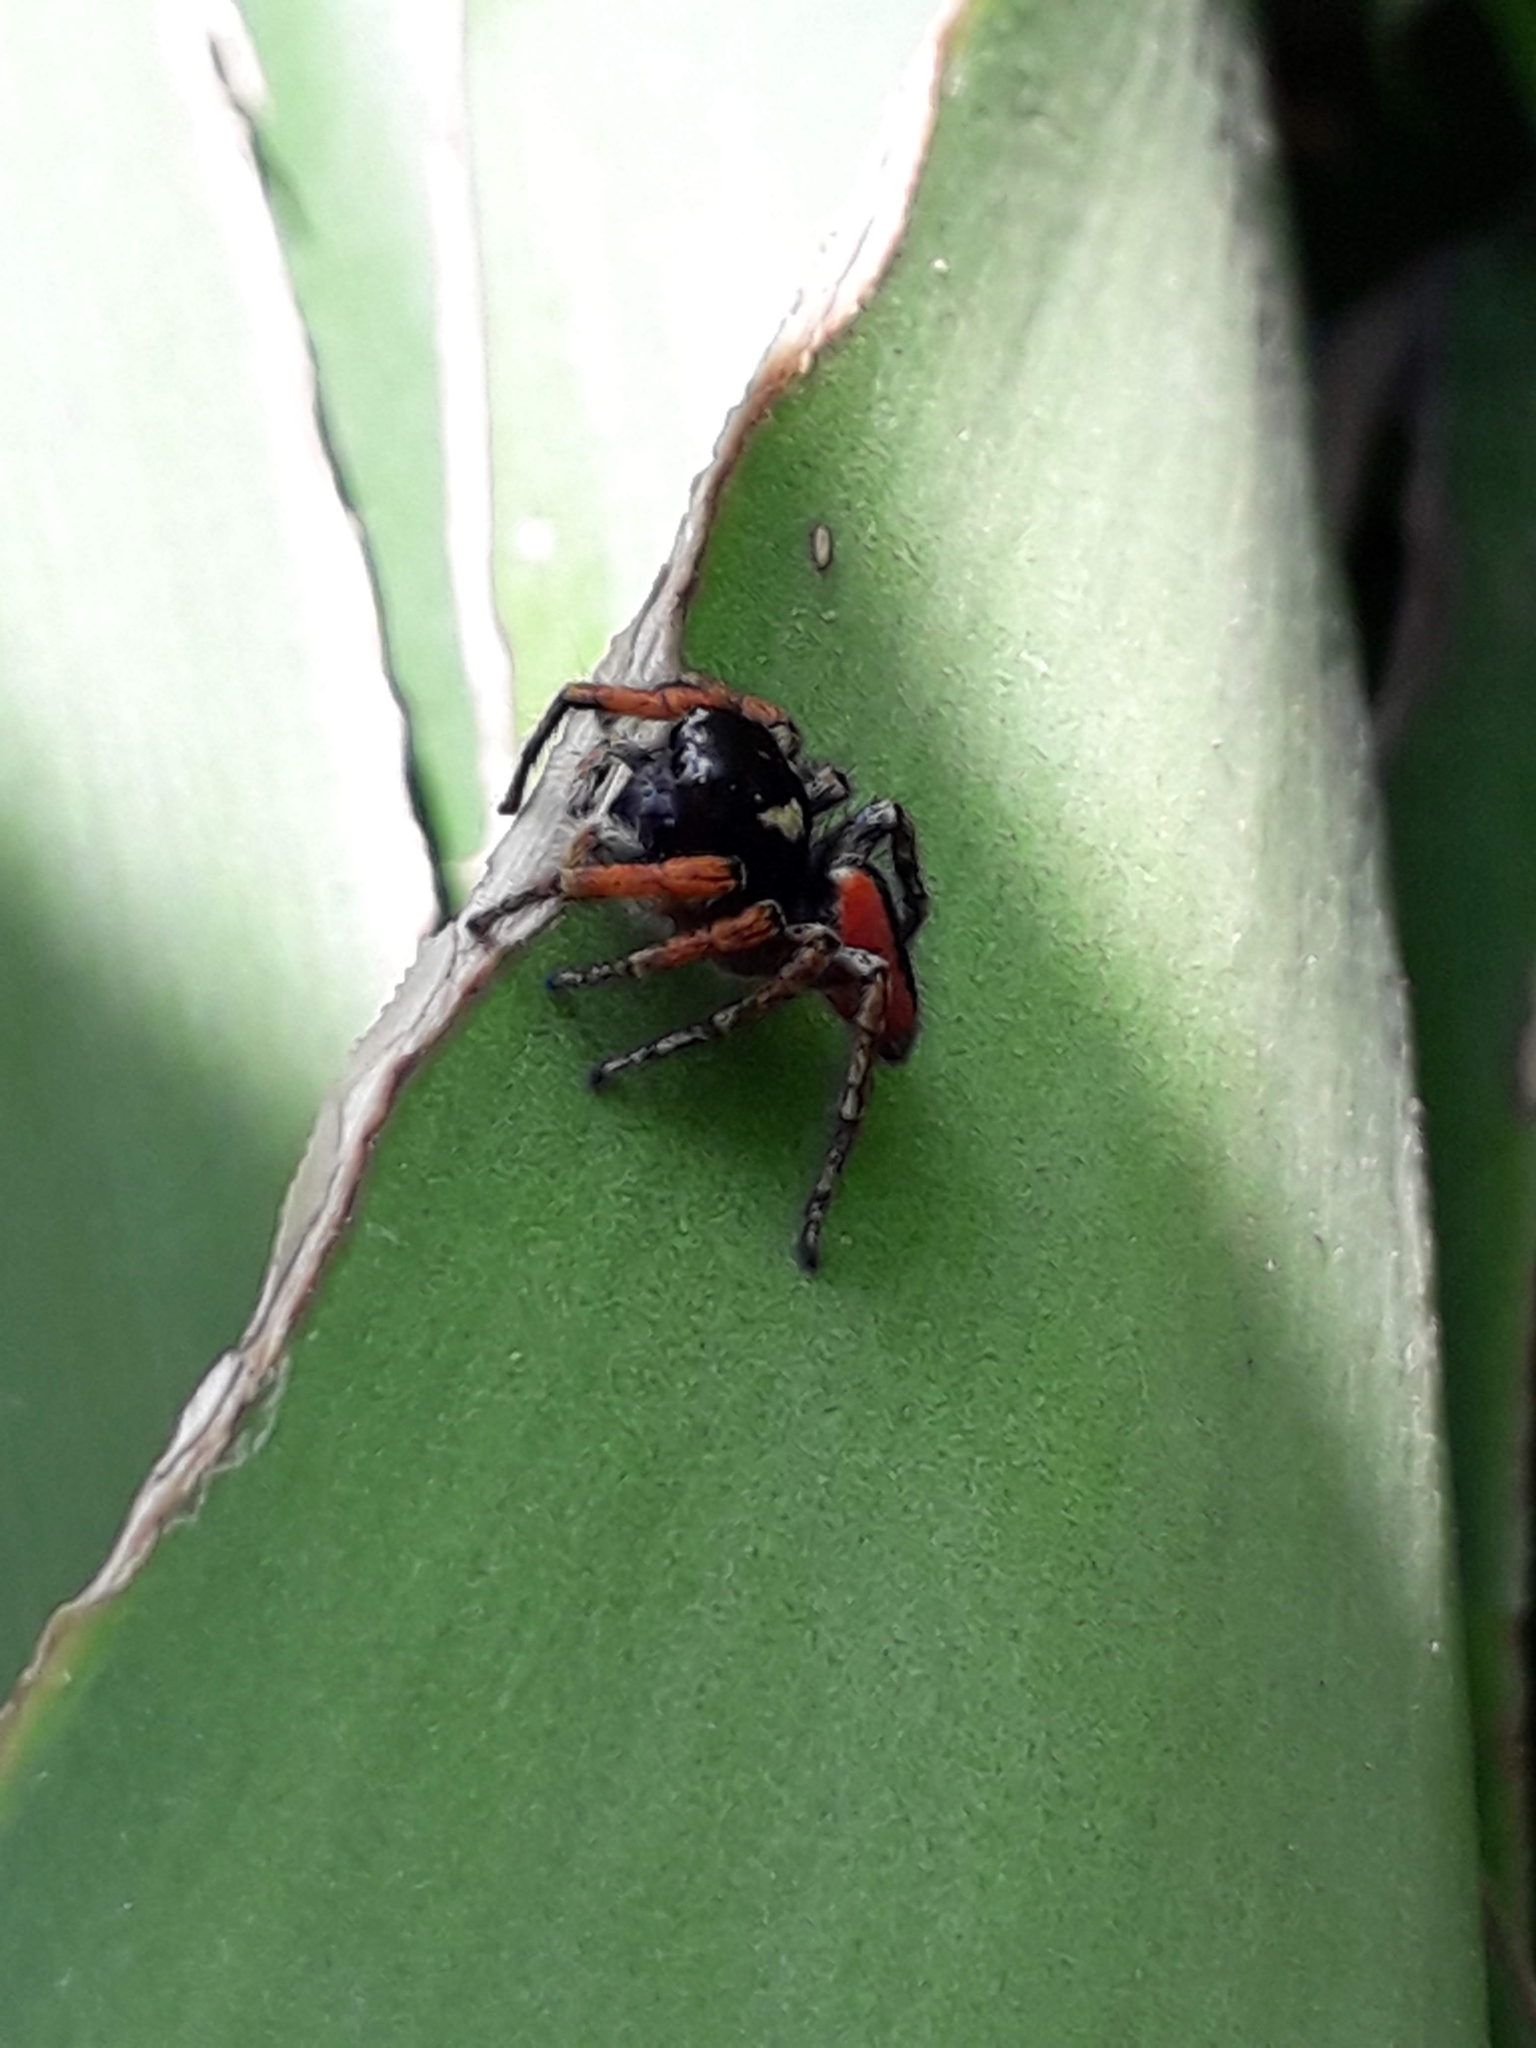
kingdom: Animalia
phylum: Arthropoda
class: Arachnida
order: Araneae
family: Salticidae
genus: Philaeus
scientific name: Philaeus chrysops
